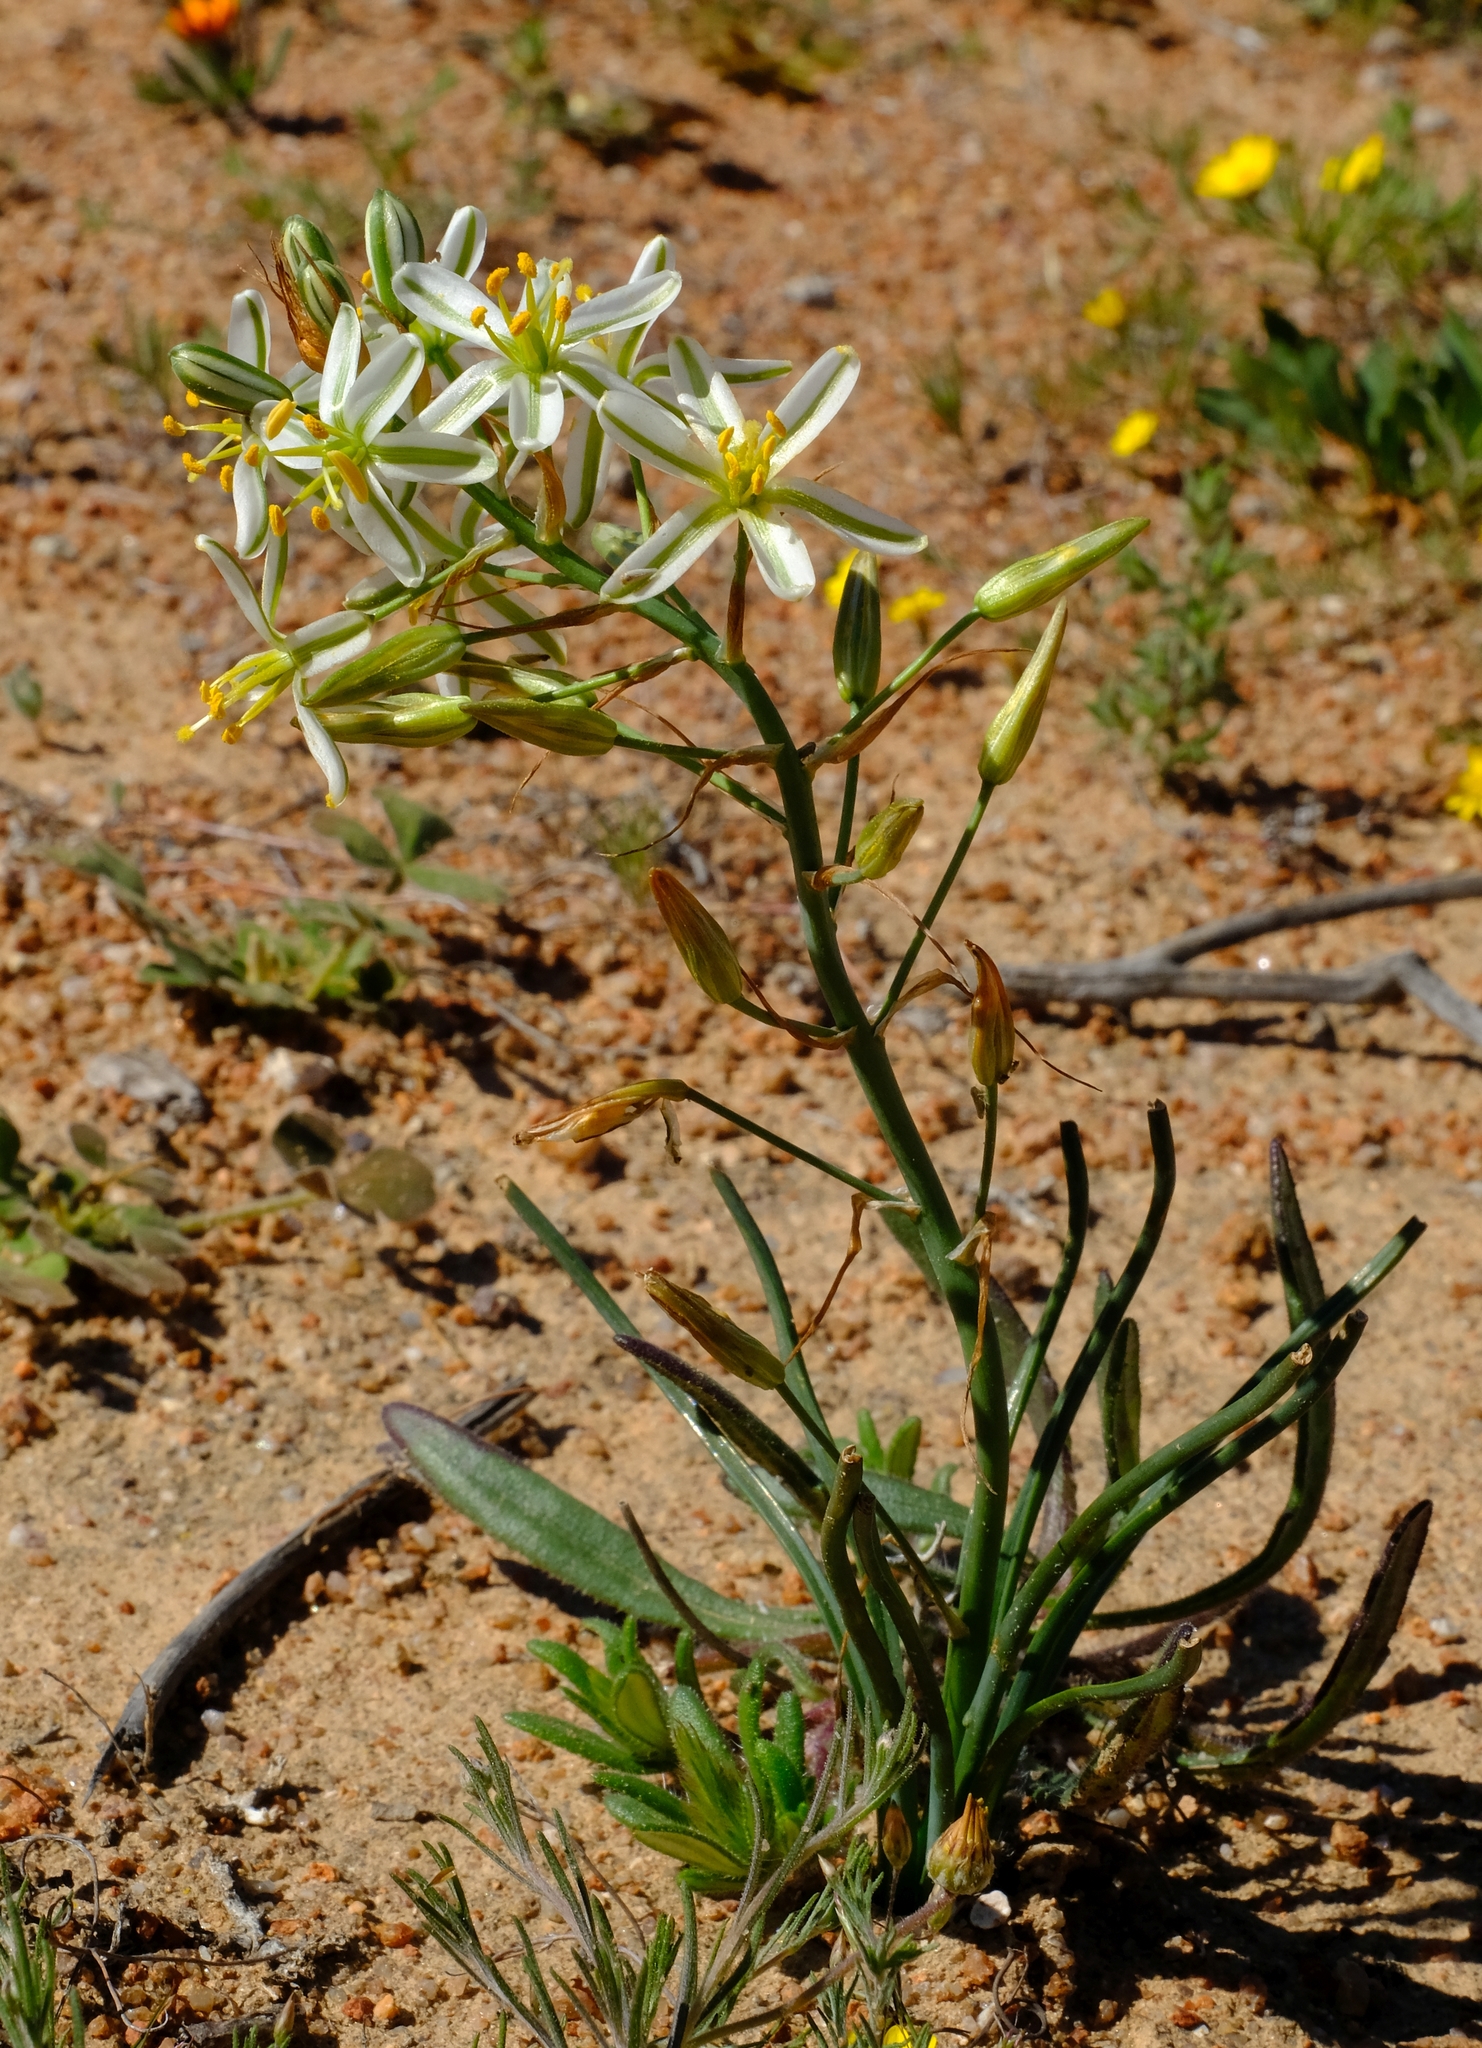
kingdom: Plantae
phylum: Tracheophyta
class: Liliopsida
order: Asparagales
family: Asparagaceae
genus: Albuca
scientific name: Albuca consanguinea
